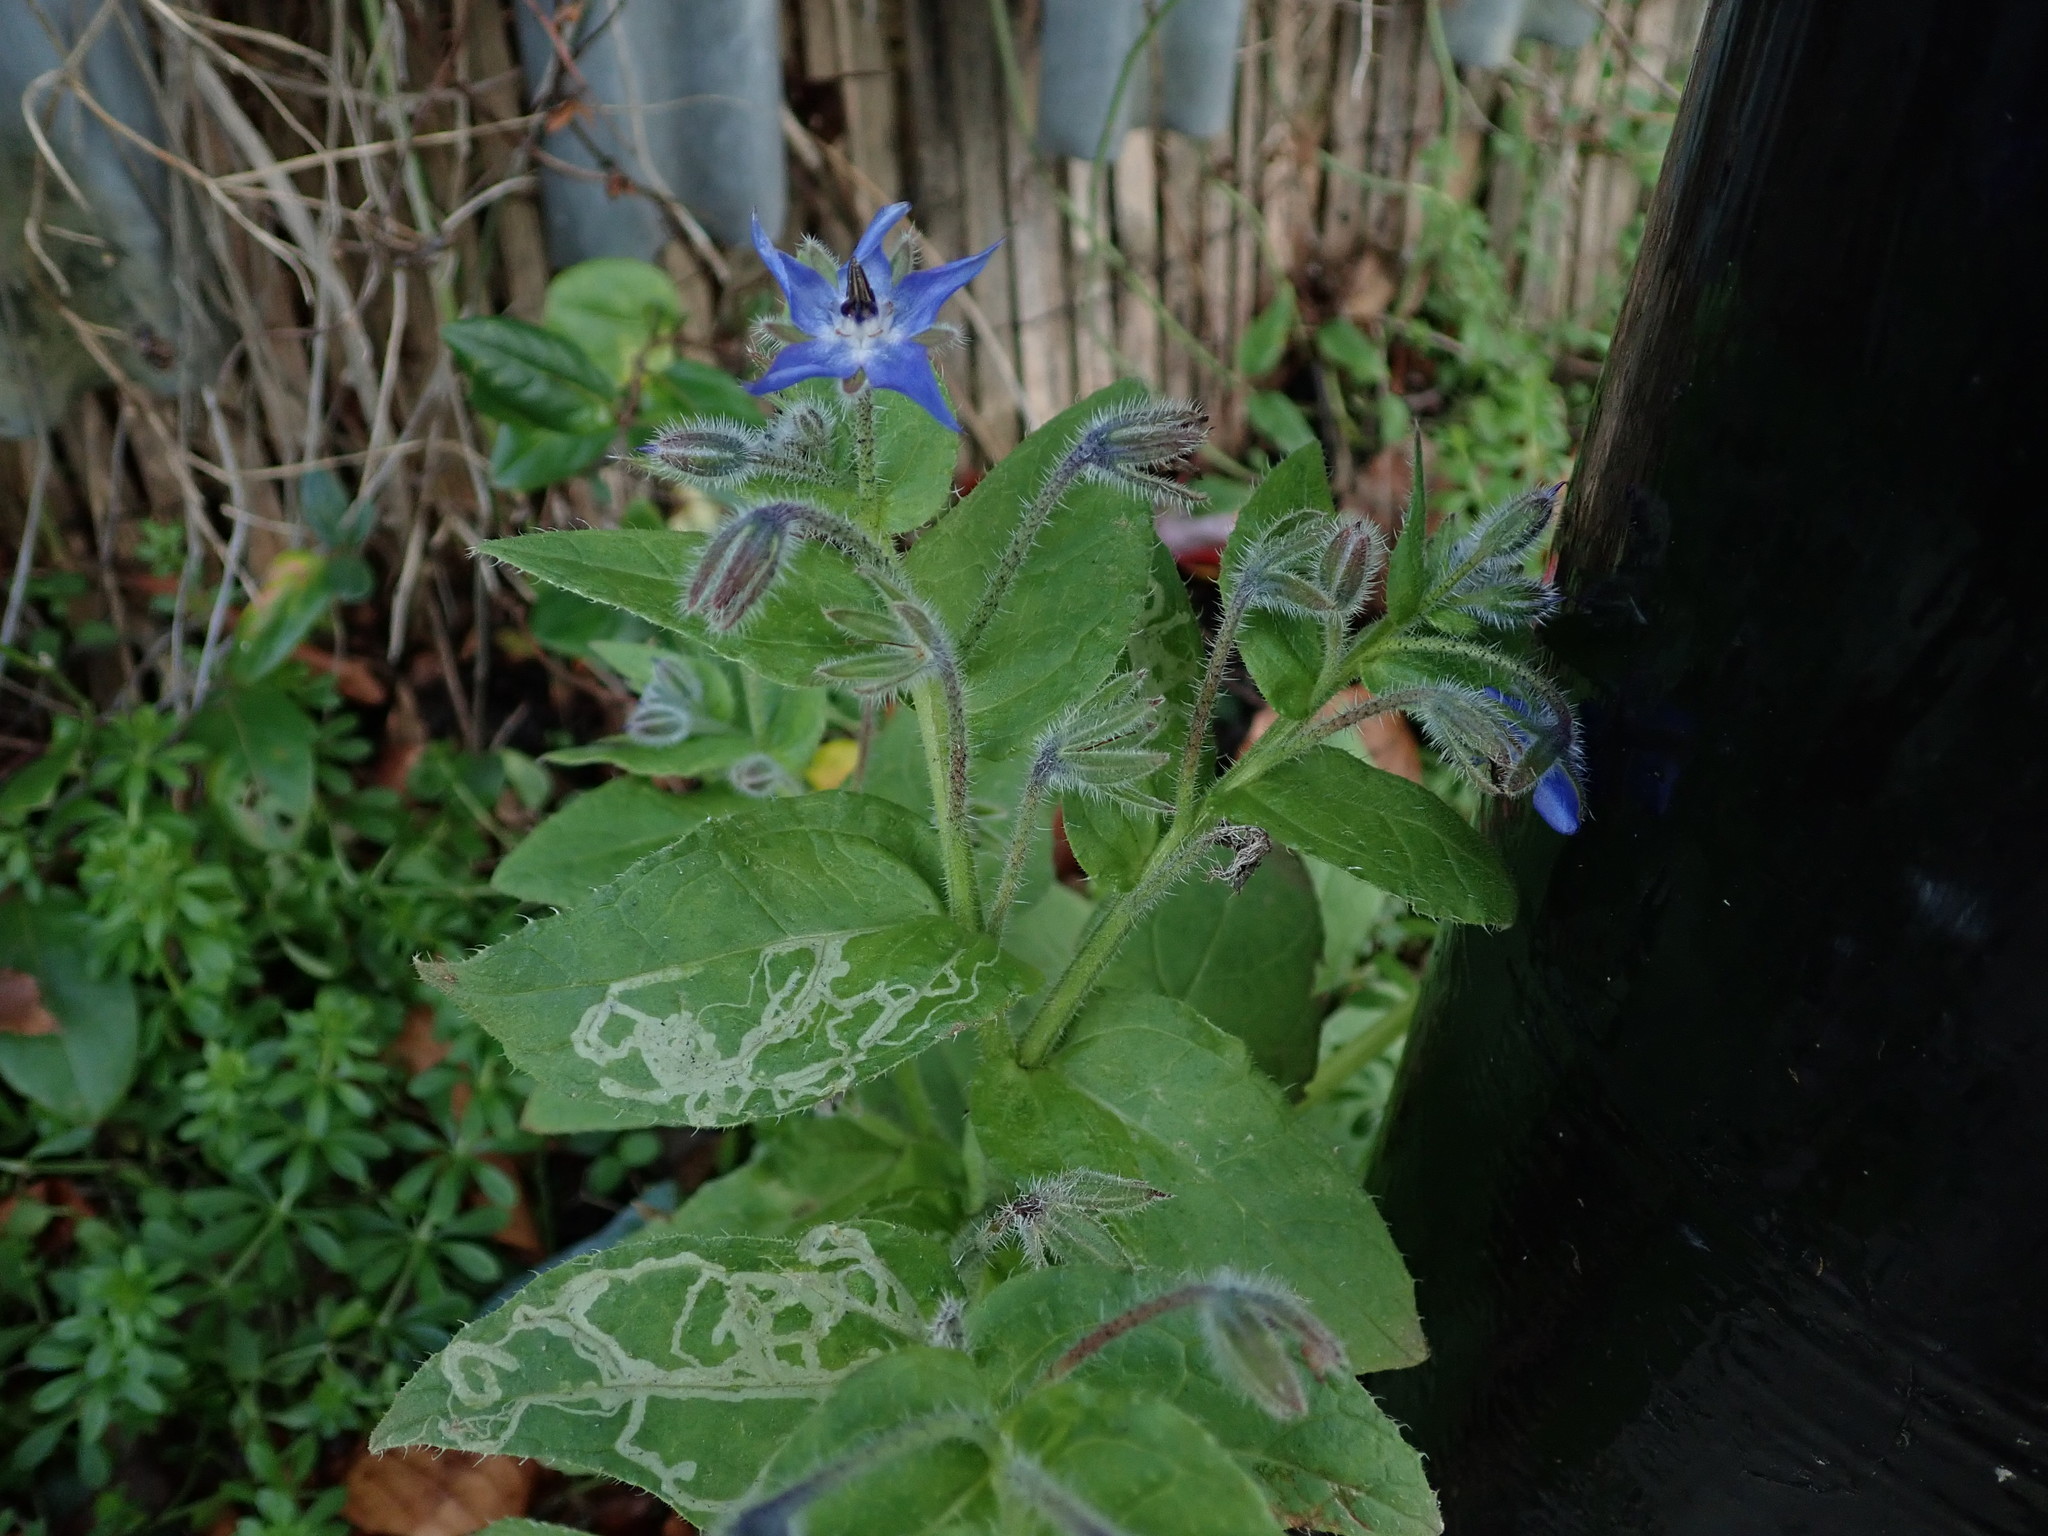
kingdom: Plantae
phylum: Tracheophyta
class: Magnoliopsida
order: Boraginales
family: Boraginaceae
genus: Borago
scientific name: Borago officinalis
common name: Borage
